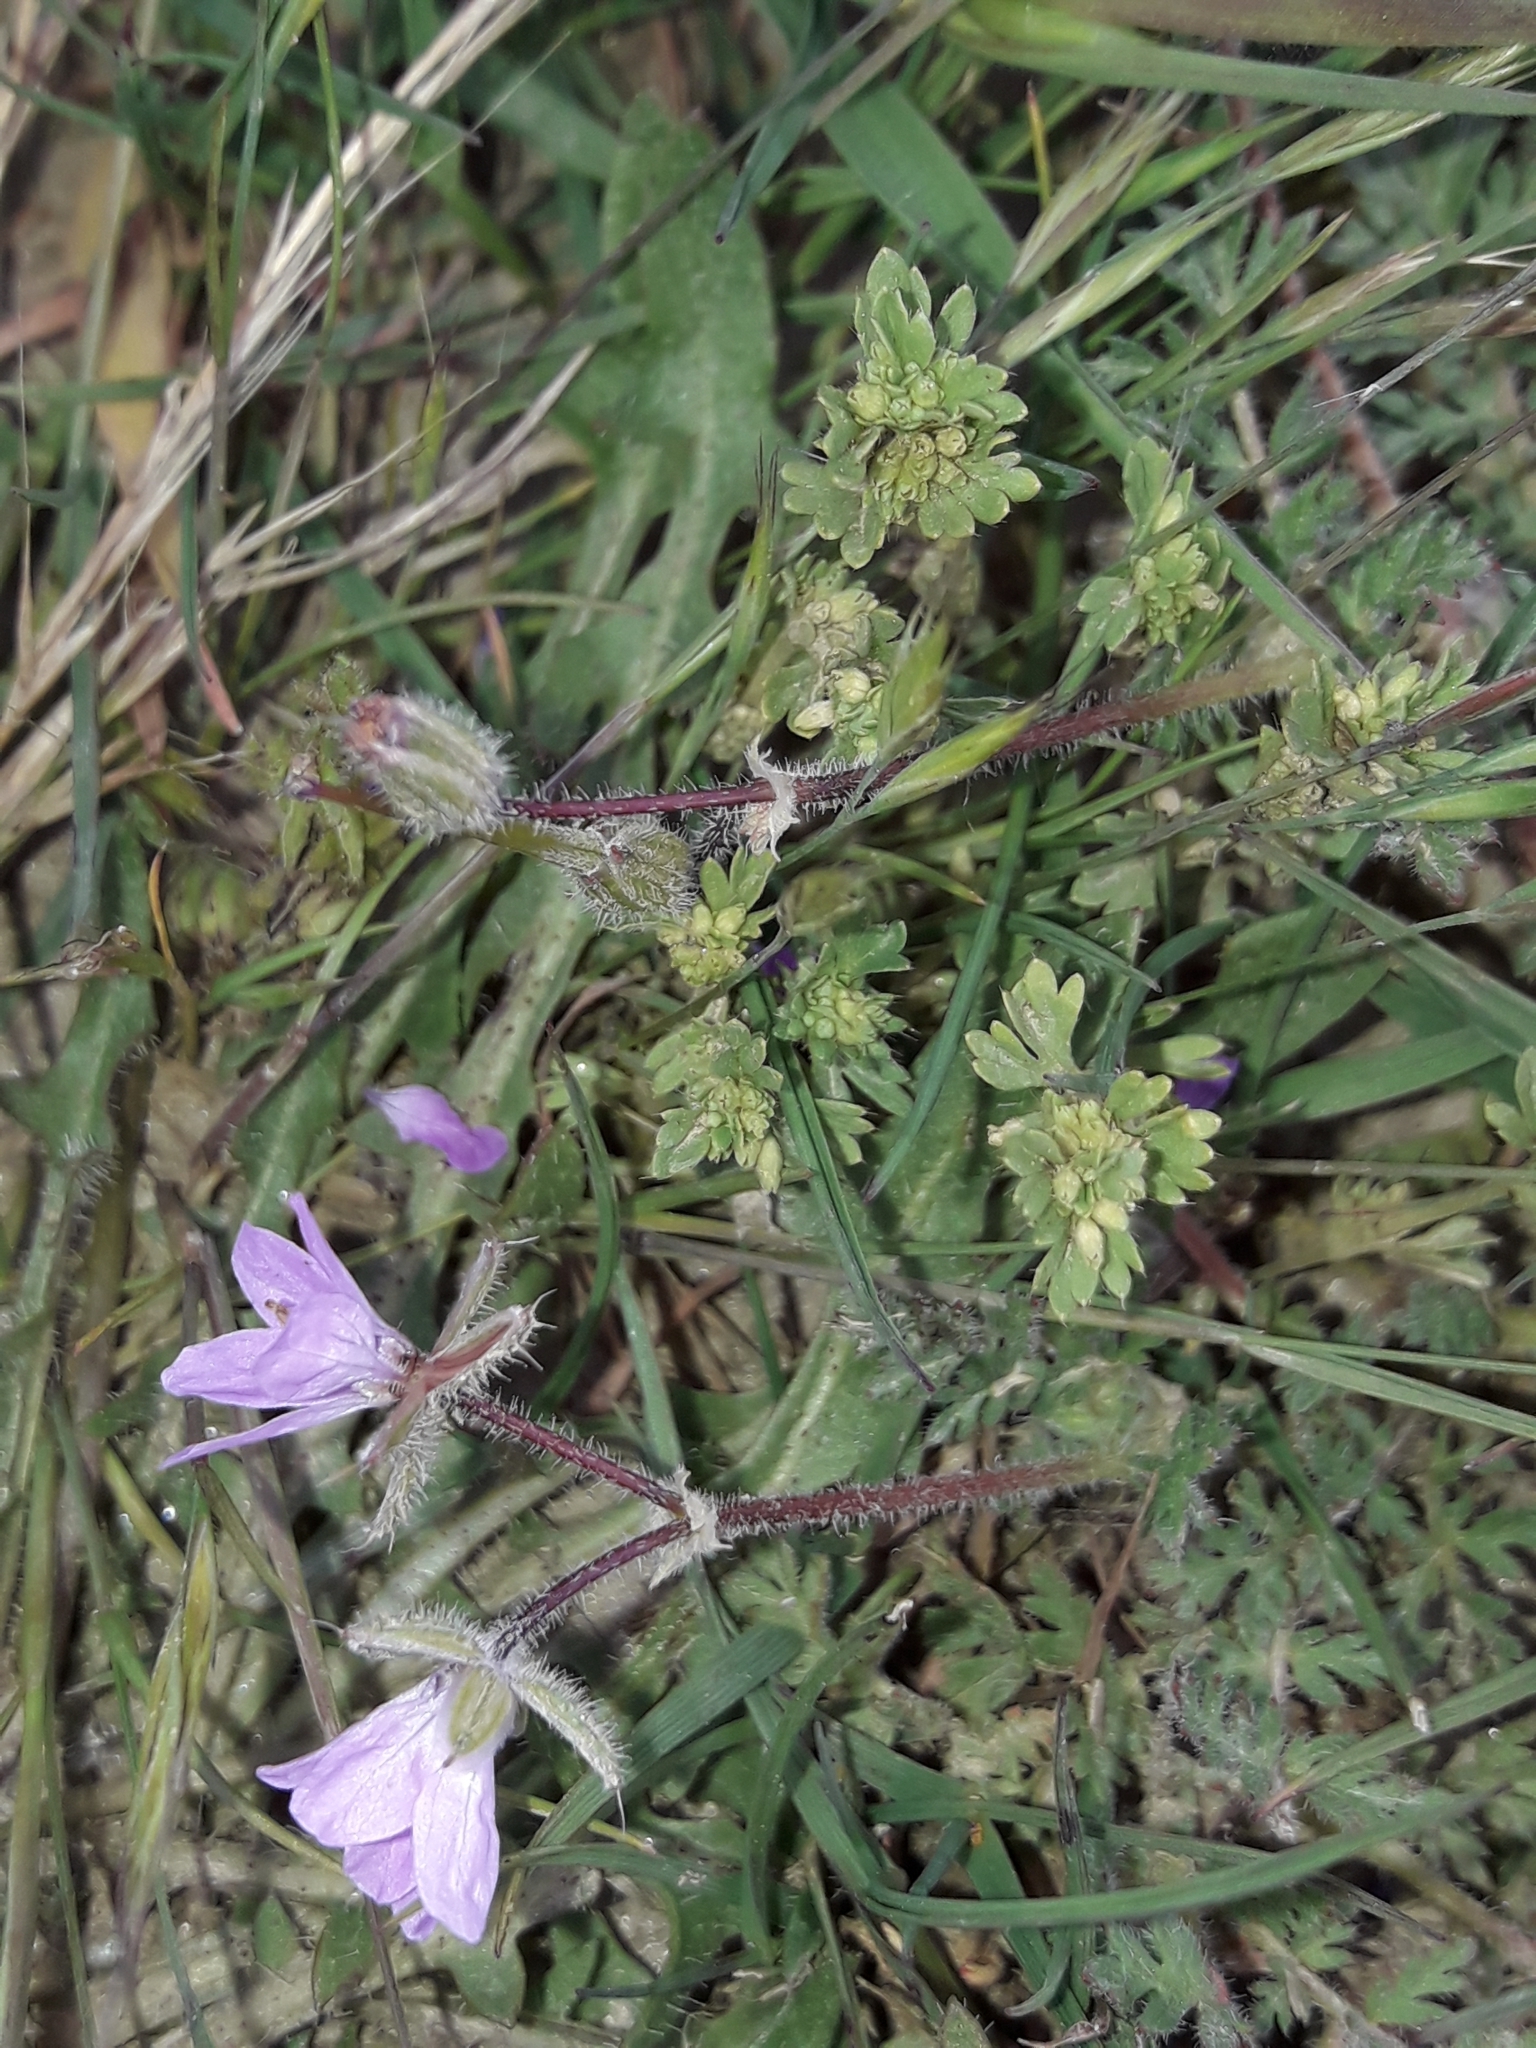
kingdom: Plantae
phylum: Tracheophyta
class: Magnoliopsida
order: Geraniales
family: Geraniaceae
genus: Erodium
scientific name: Erodium cicutarium
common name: Common stork's-bill
